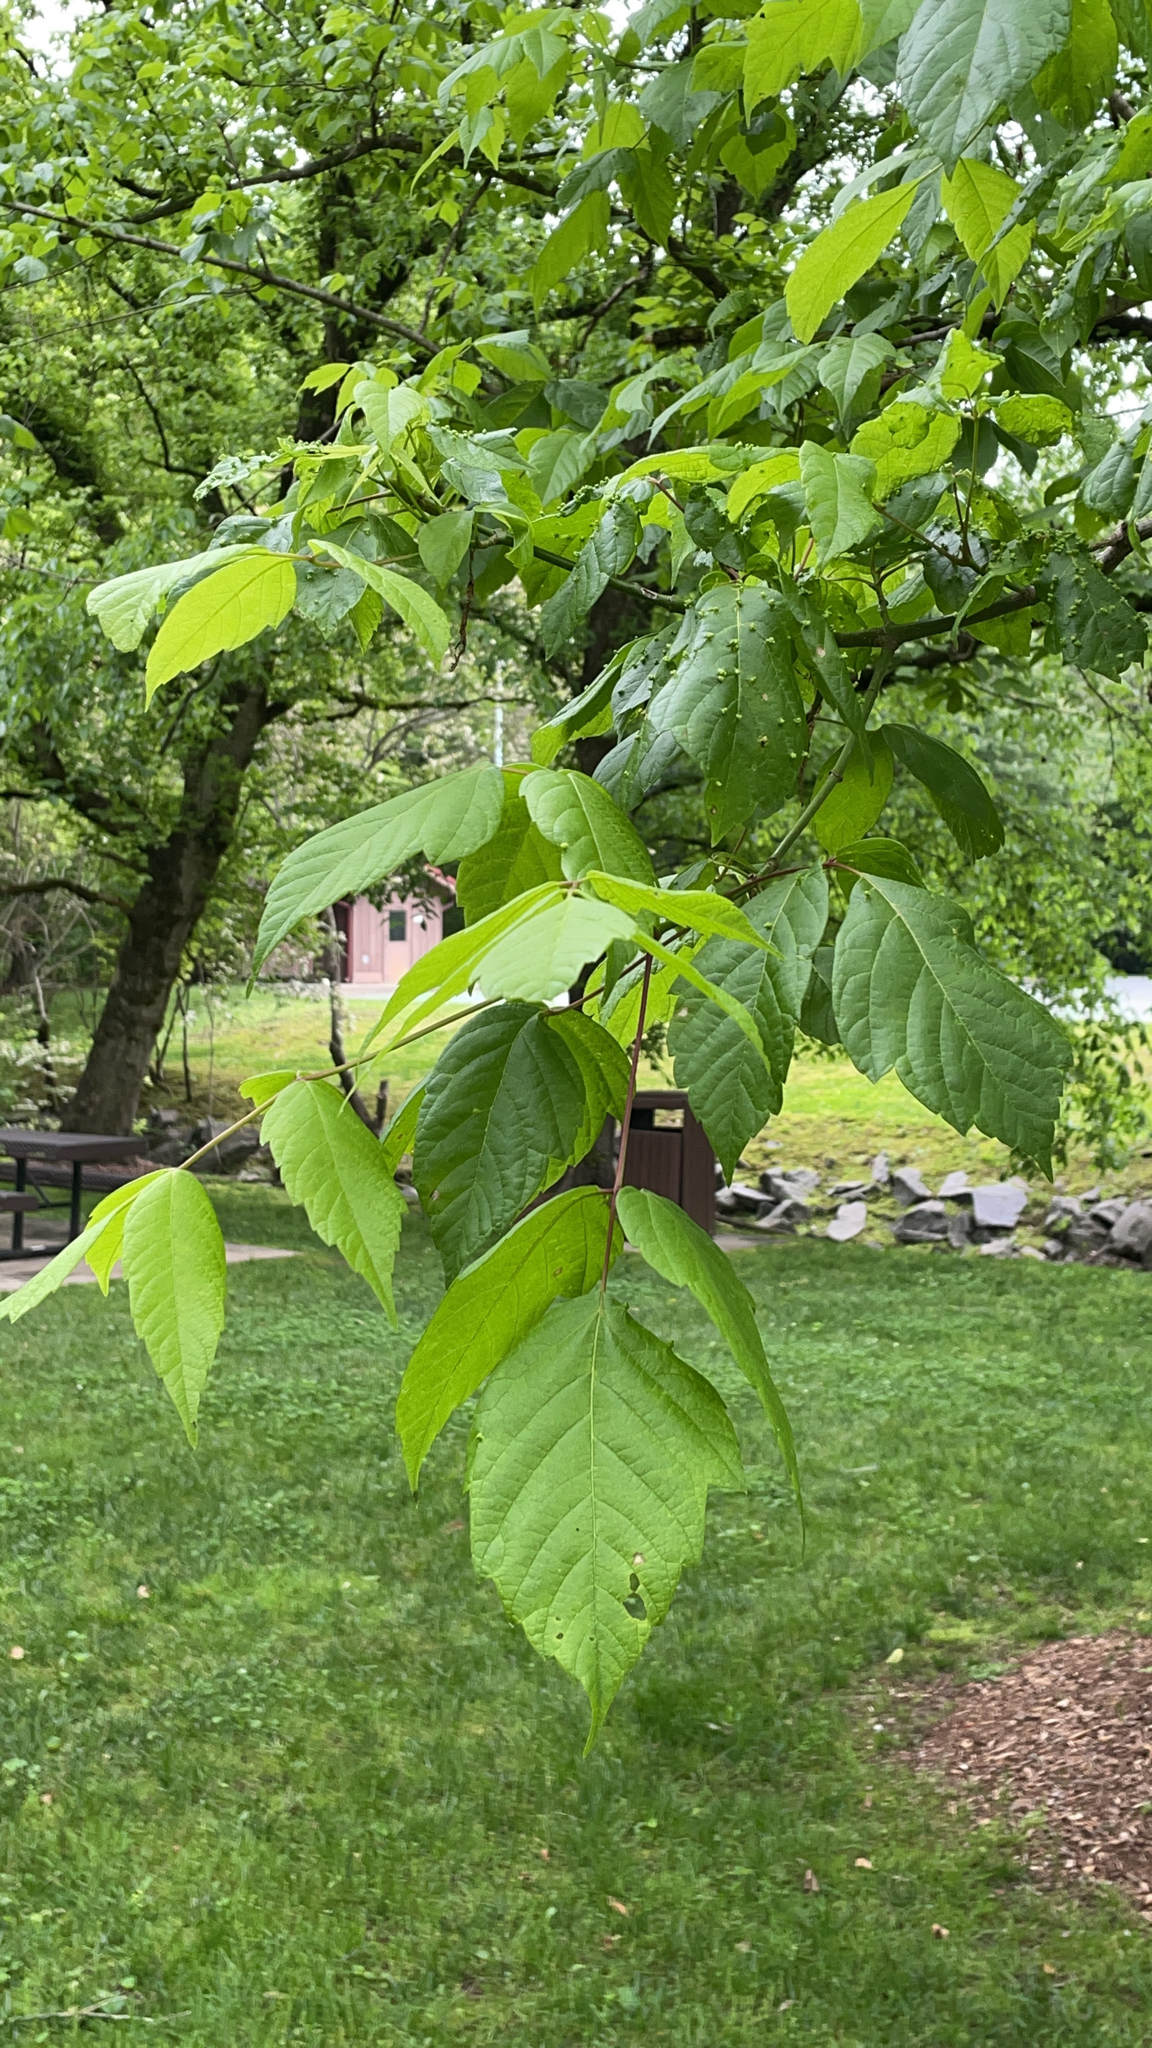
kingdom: Plantae
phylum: Tracheophyta
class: Magnoliopsida
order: Sapindales
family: Sapindaceae
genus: Acer
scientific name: Acer negundo
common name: Ashleaf maple
